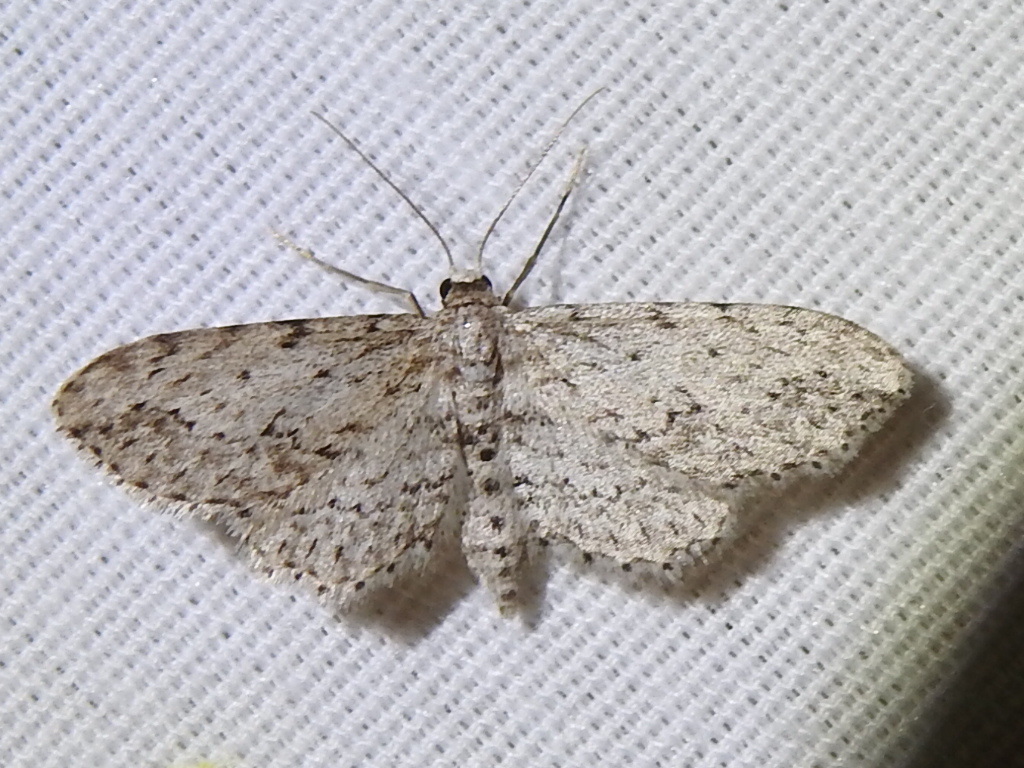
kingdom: Animalia
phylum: Arthropoda
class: Insecta
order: Lepidoptera
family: Geometridae
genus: Pimaphera
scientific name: Pimaphera sparsaria
